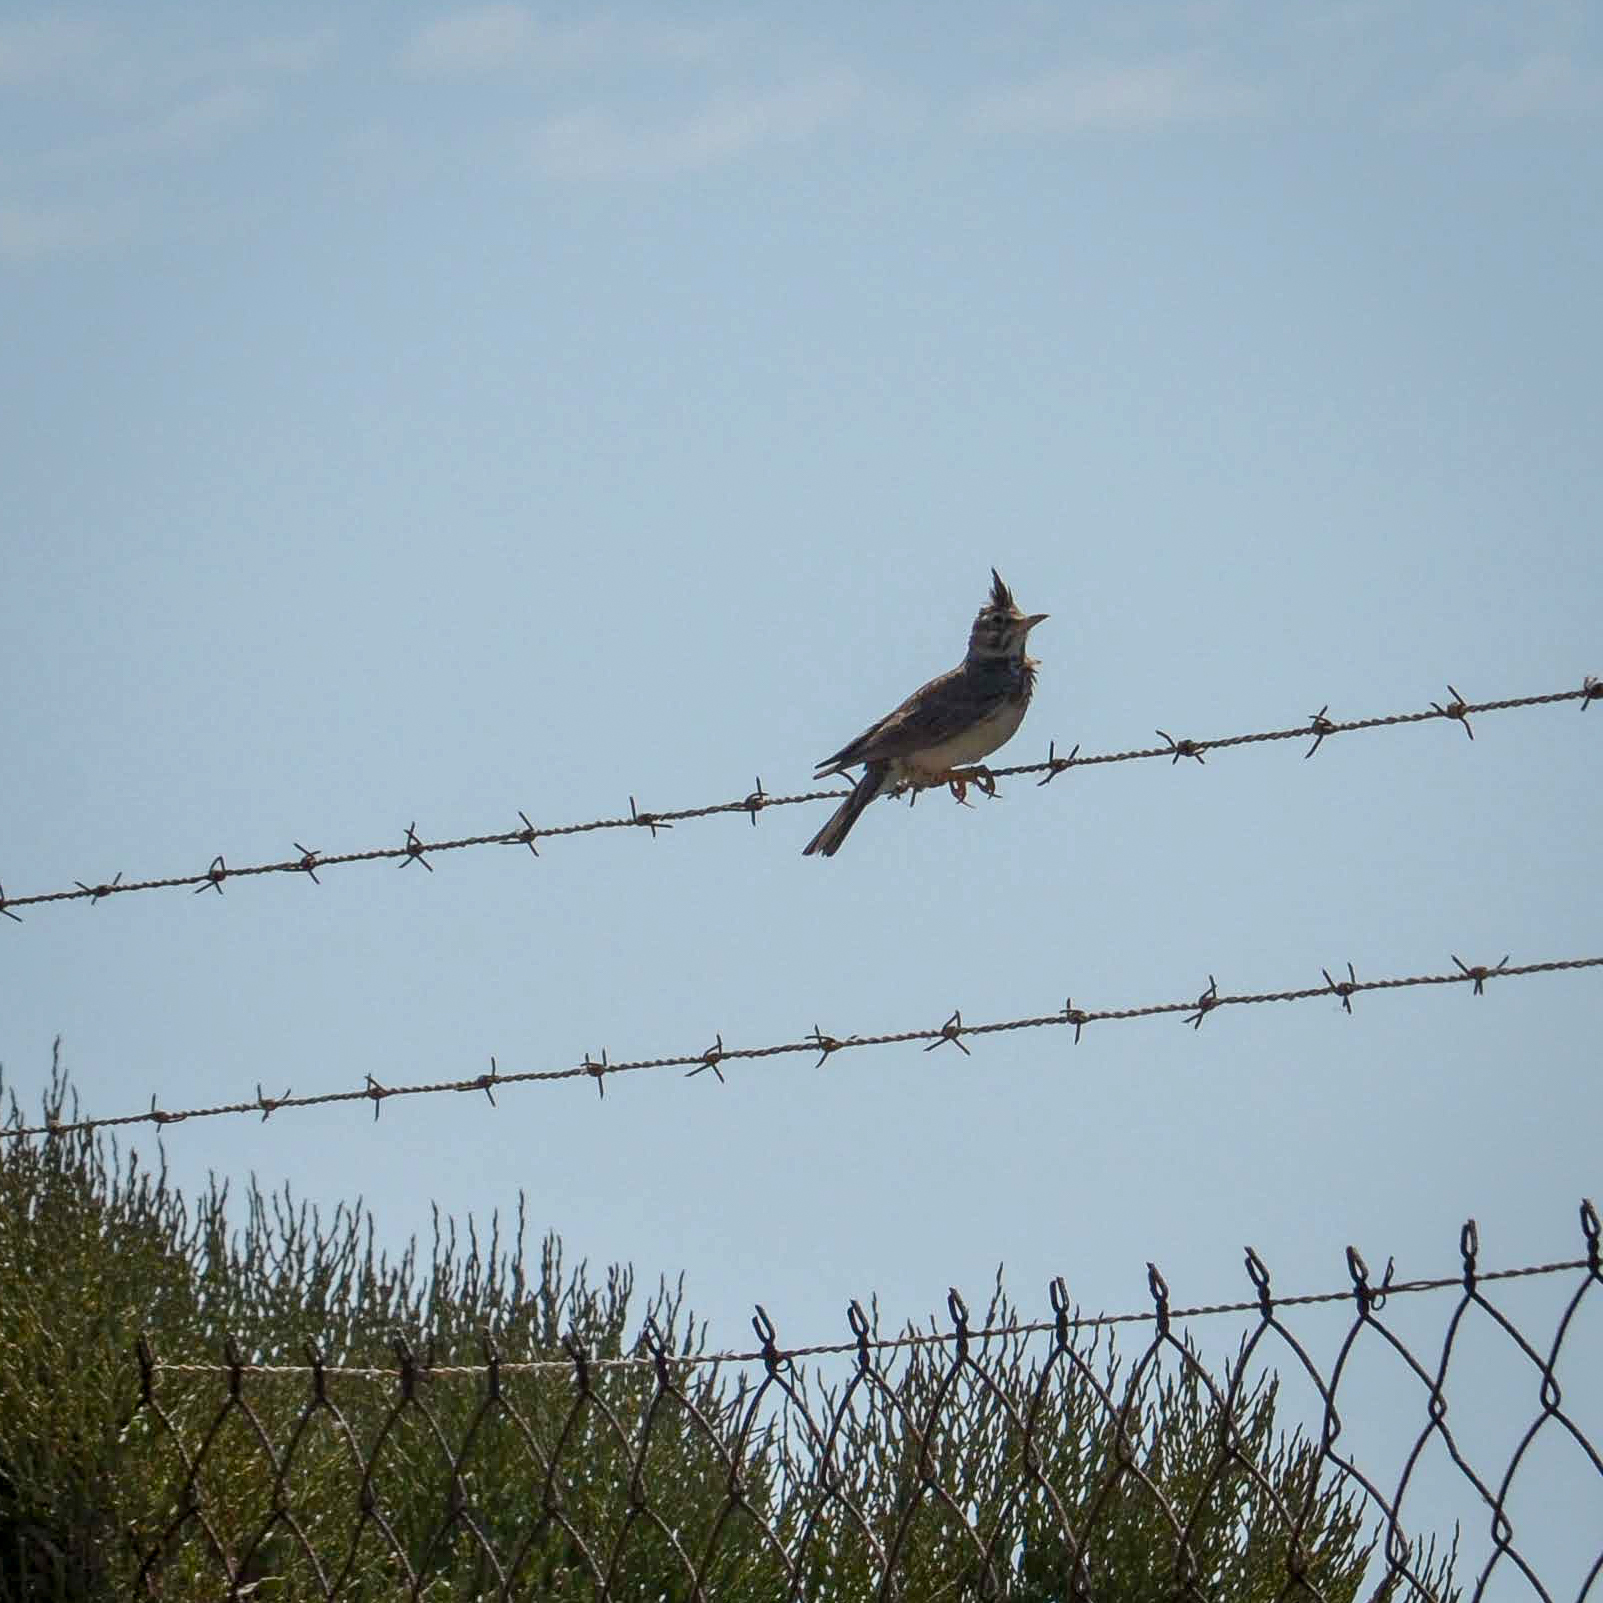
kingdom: Animalia
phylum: Chordata
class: Aves
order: Passeriformes
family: Alaudidae
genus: Galerida
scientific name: Galerida cristata
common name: Crested lark
